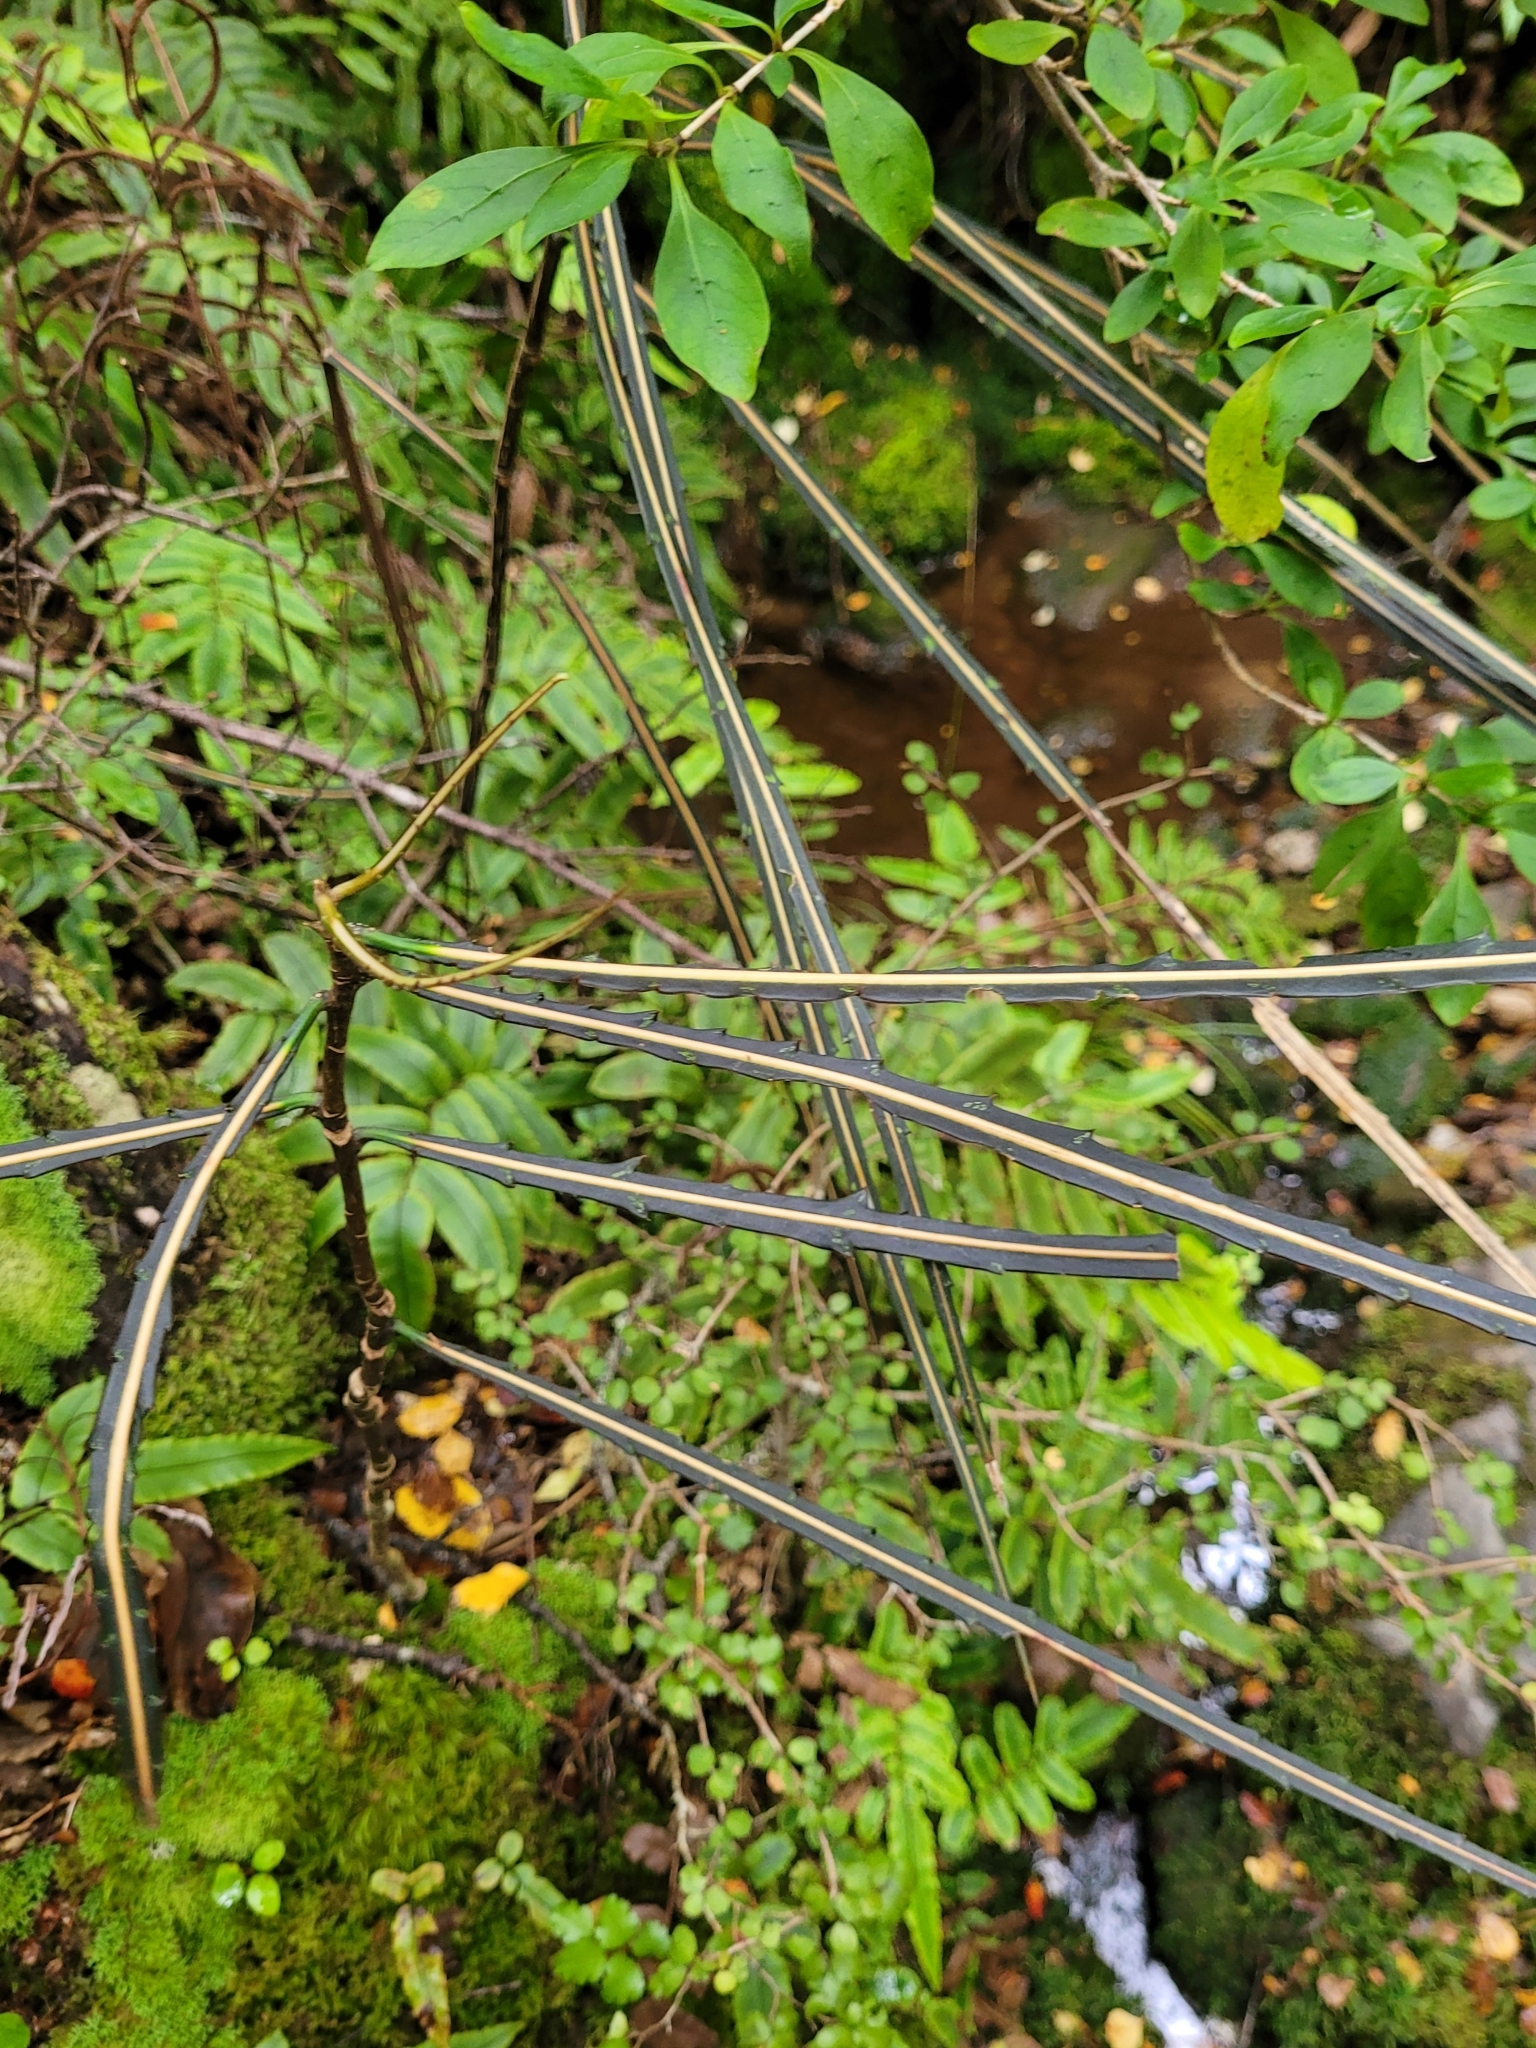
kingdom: Plantae
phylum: Tracheophyta
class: Magnoliopsida
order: Apiales
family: Araliaceae
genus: Pseudopanax
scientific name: Pseudopanax crassifolius
